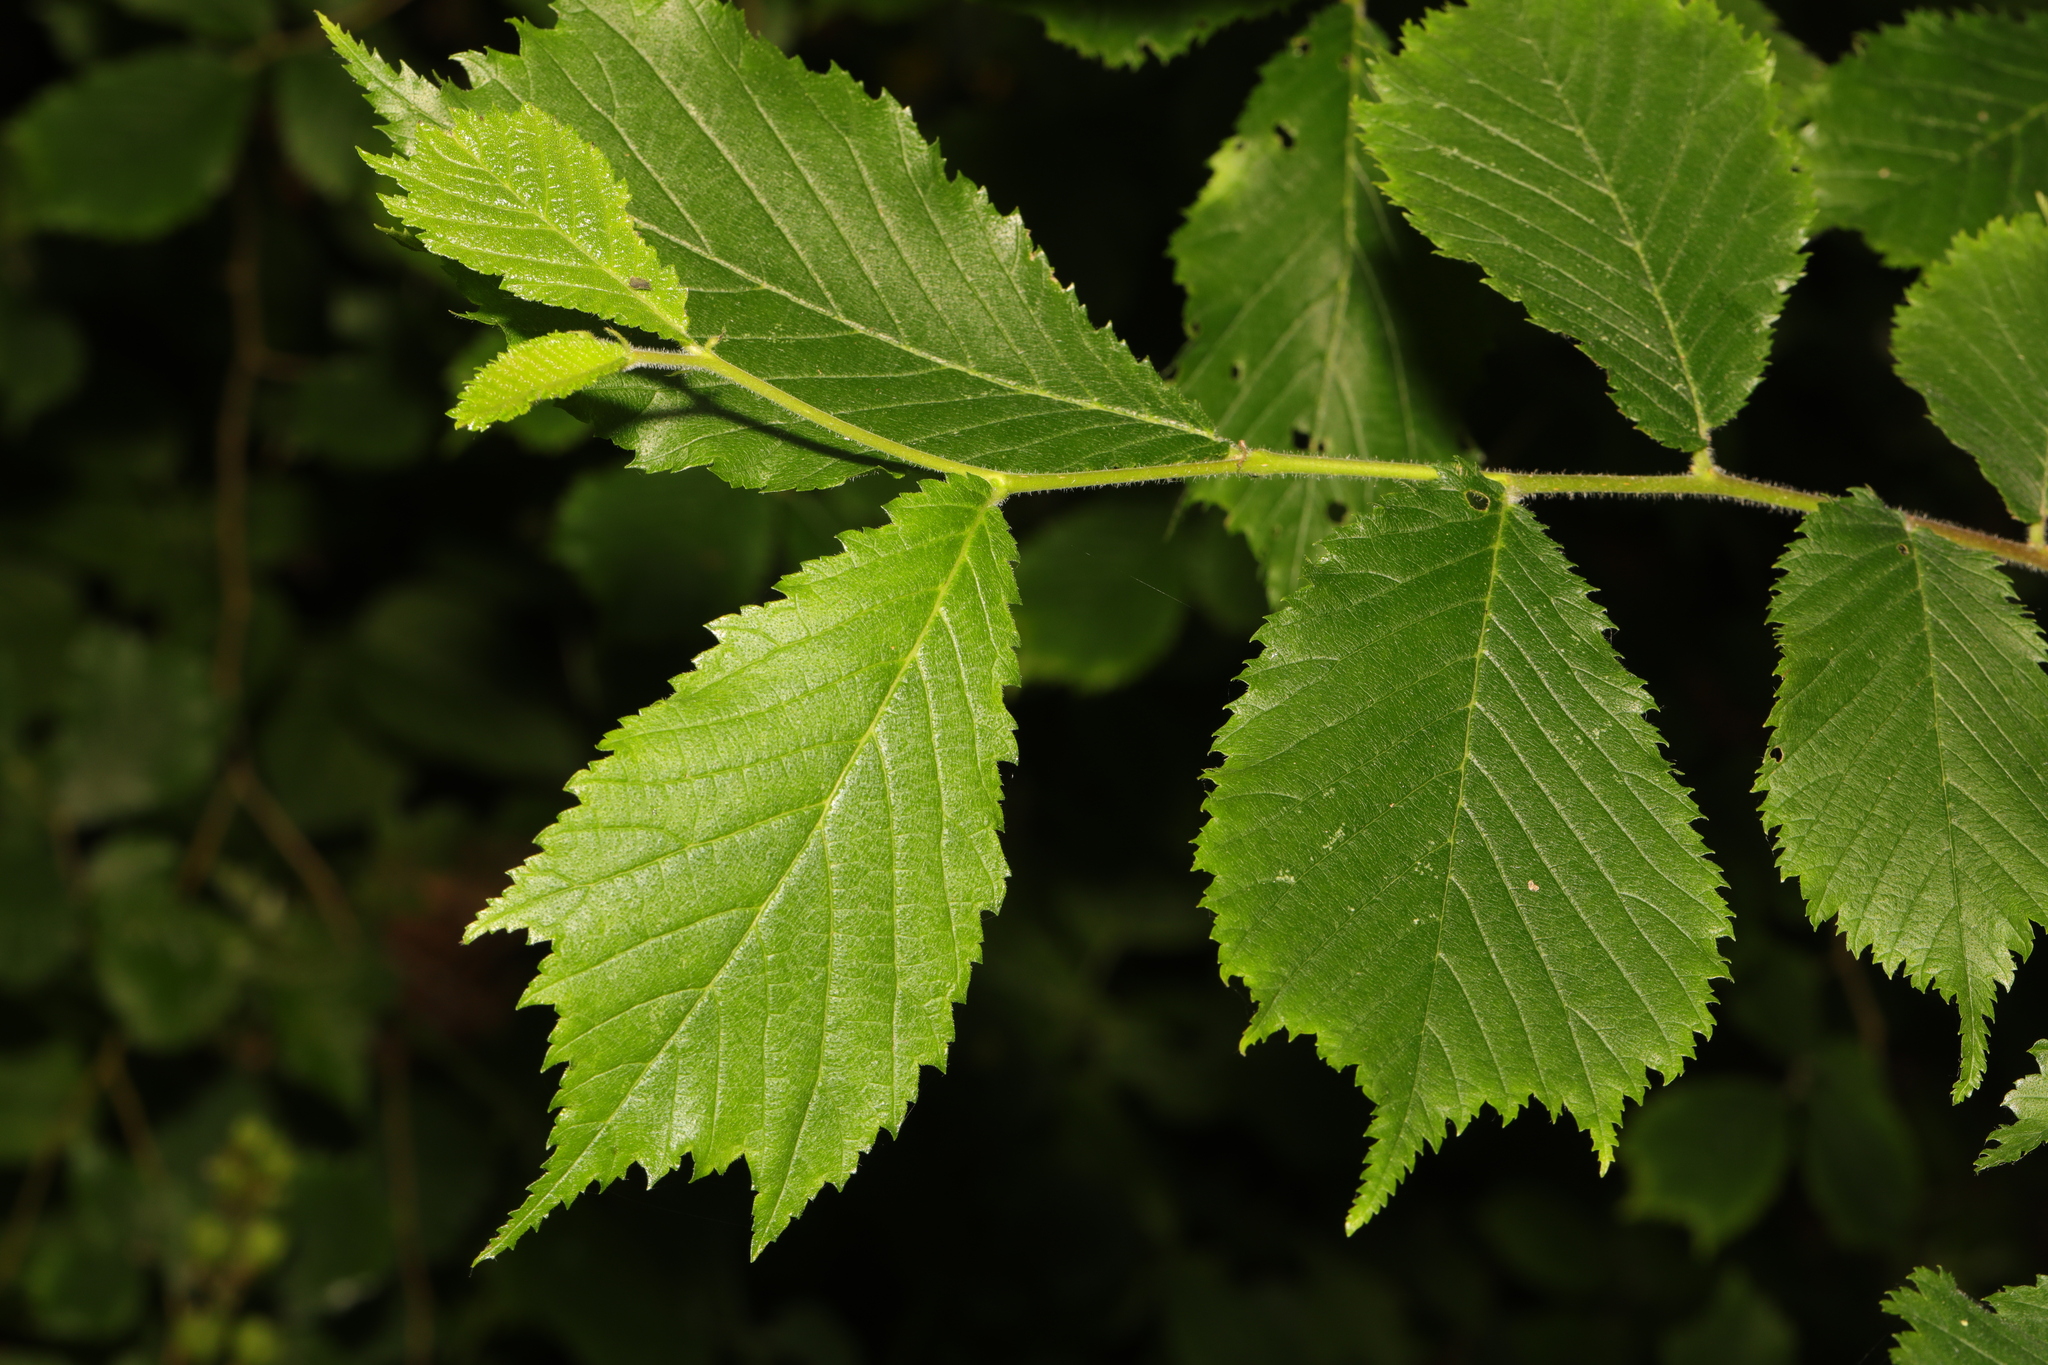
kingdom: Plantae
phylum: Tracheophyta
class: Magnoliopsida
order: Rosales
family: Ulmaceae
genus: Ulmus
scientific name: Ulmus glabra
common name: Wych elm
